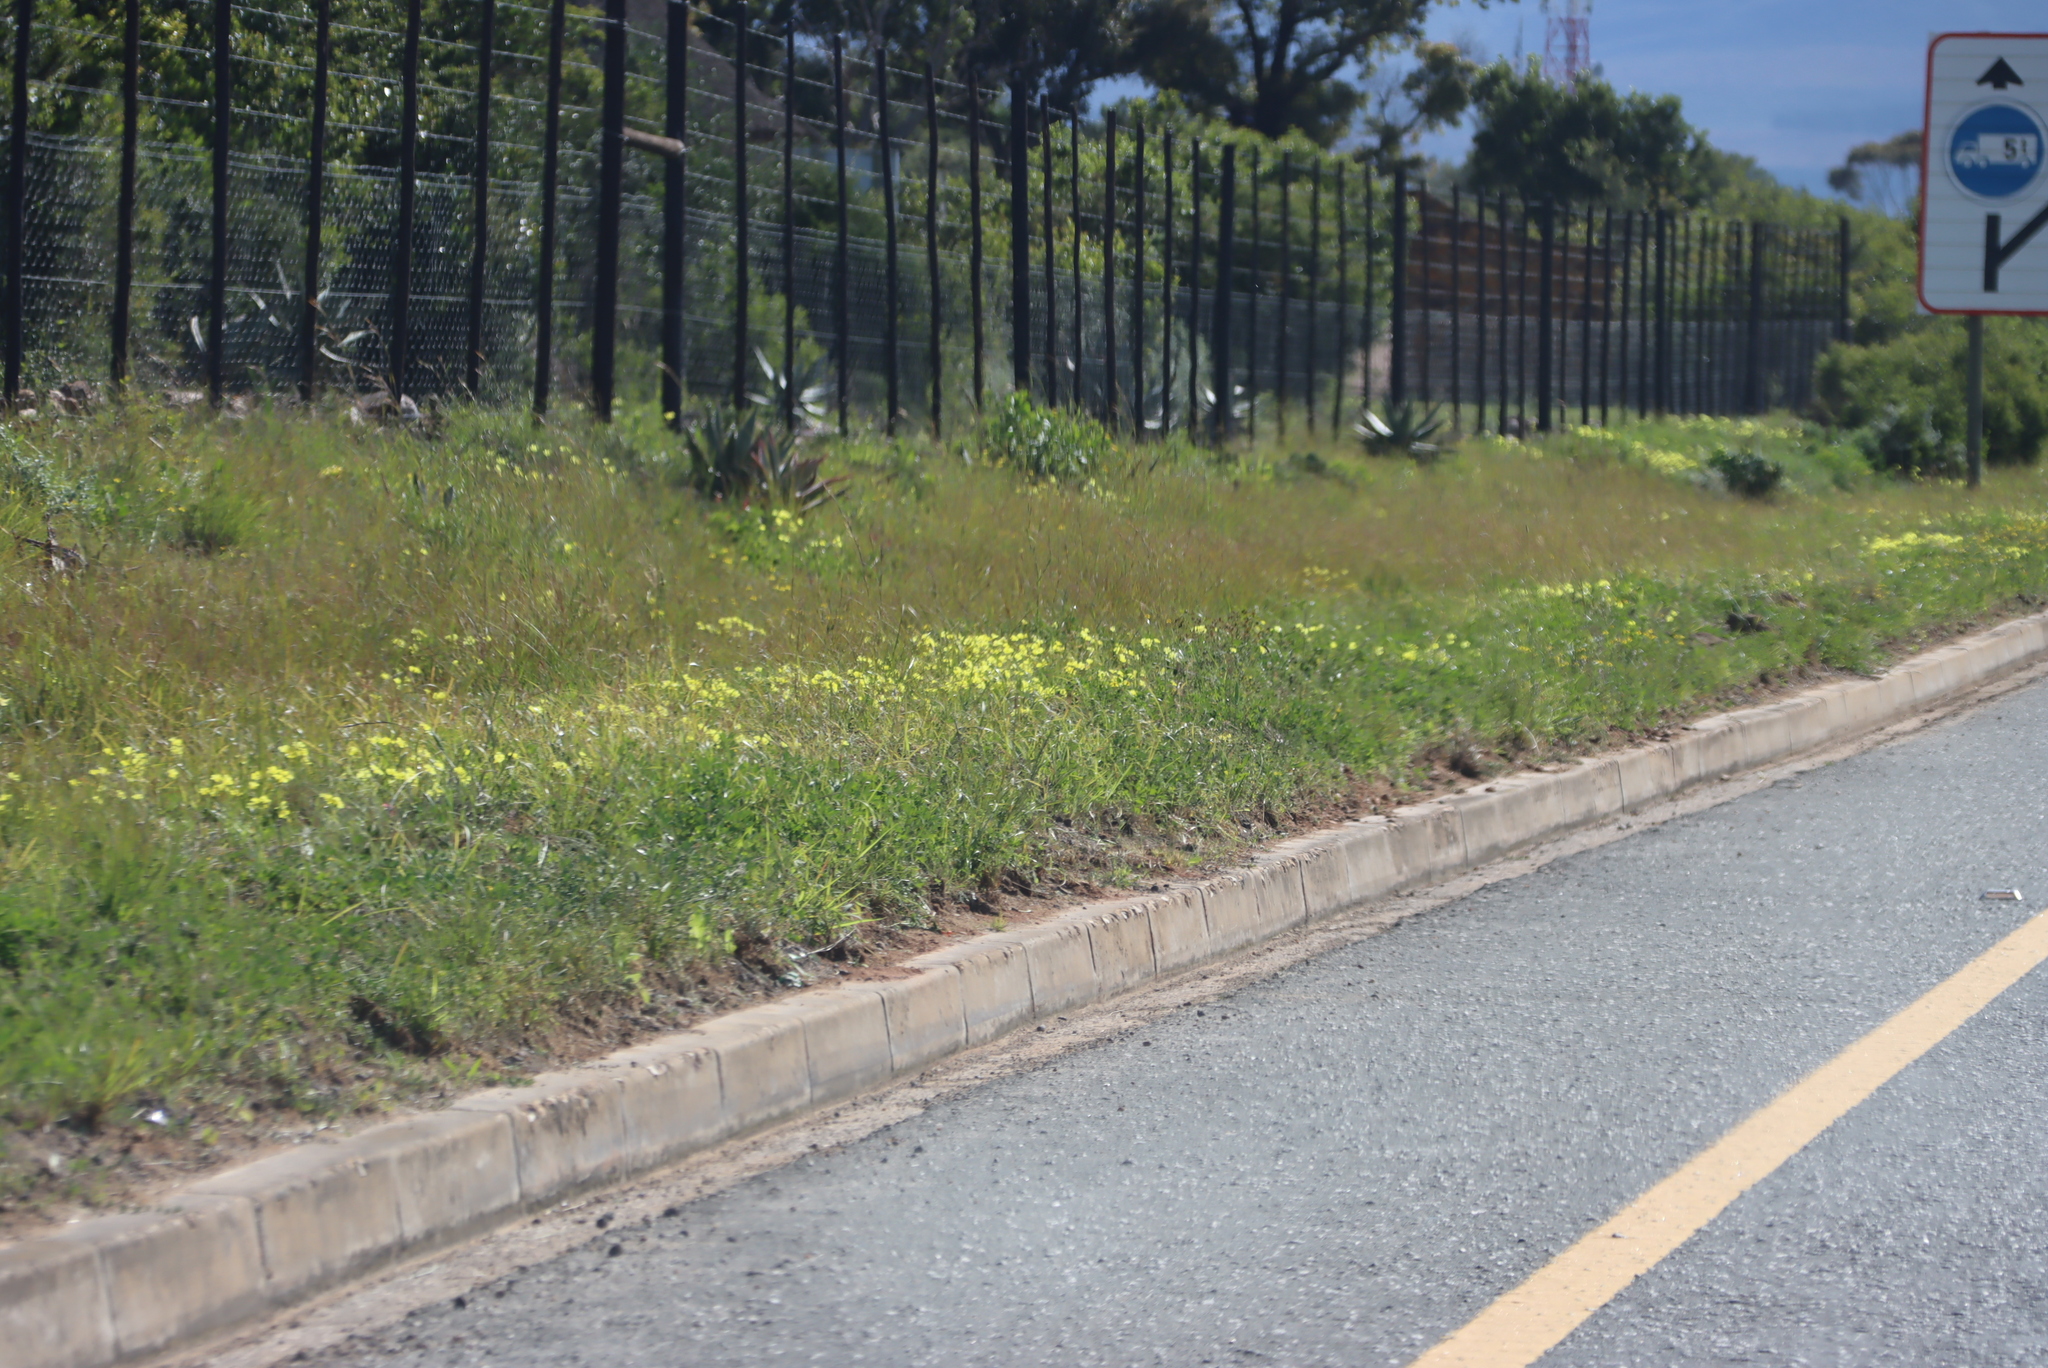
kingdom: Plantae
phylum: Tracheophyta
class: Magnoliopsida
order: Oxalidales
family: Oxalidaceae
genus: Oxalis
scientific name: Oxalis pes-caprae
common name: Bermuda-buttercup
